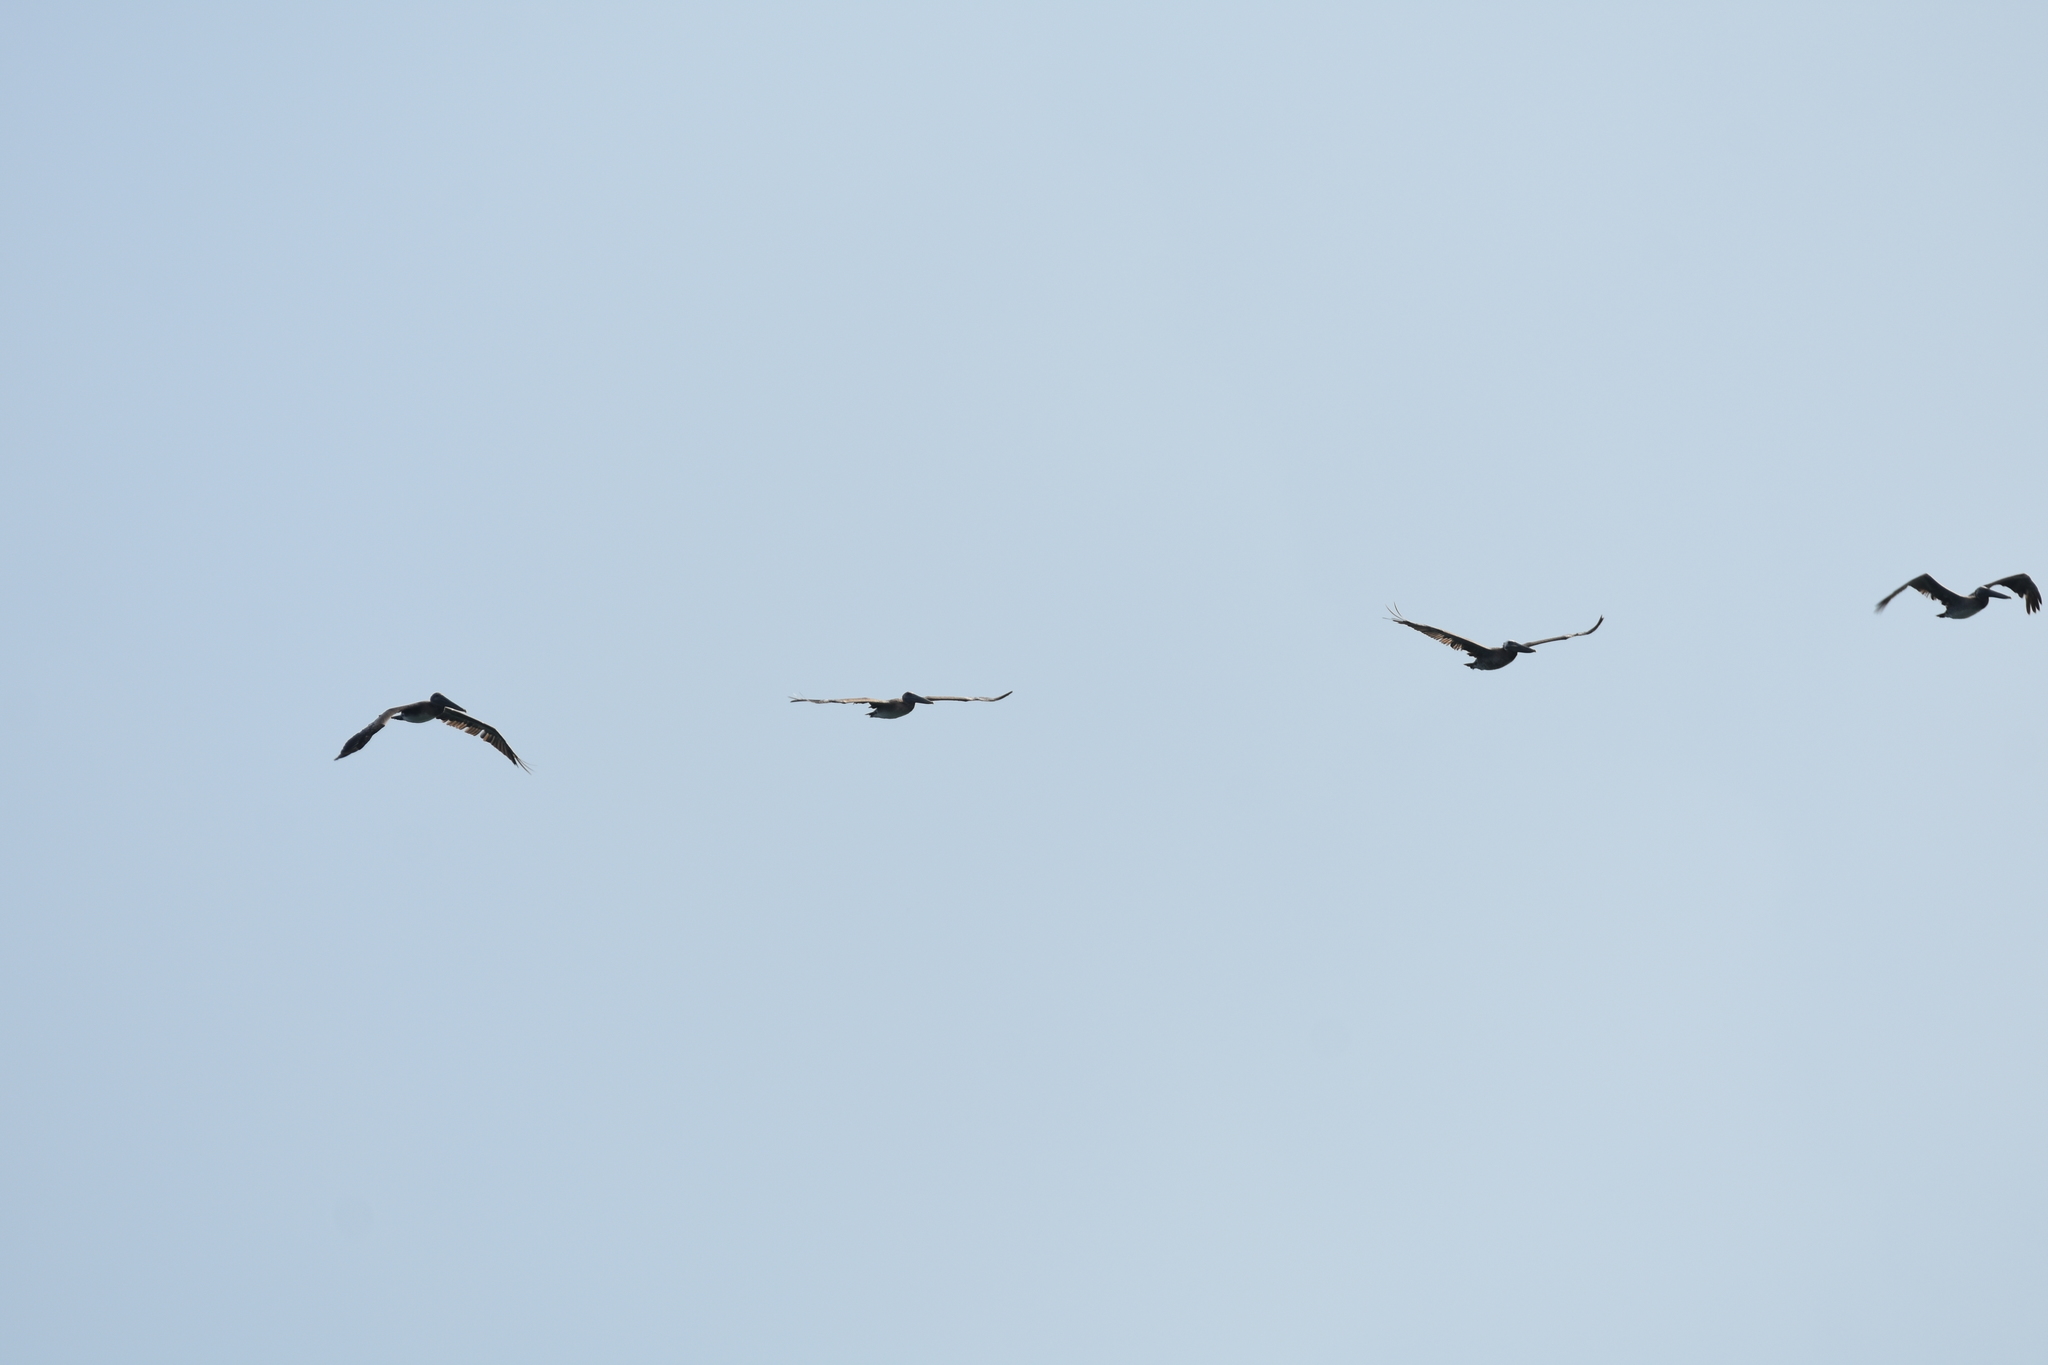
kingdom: Animalia
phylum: Chordata
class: Aves
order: Pelecaniformes
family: Pelecanidae
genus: Pelecanus
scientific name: Pelecanus occidentalis
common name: Brown pelican
